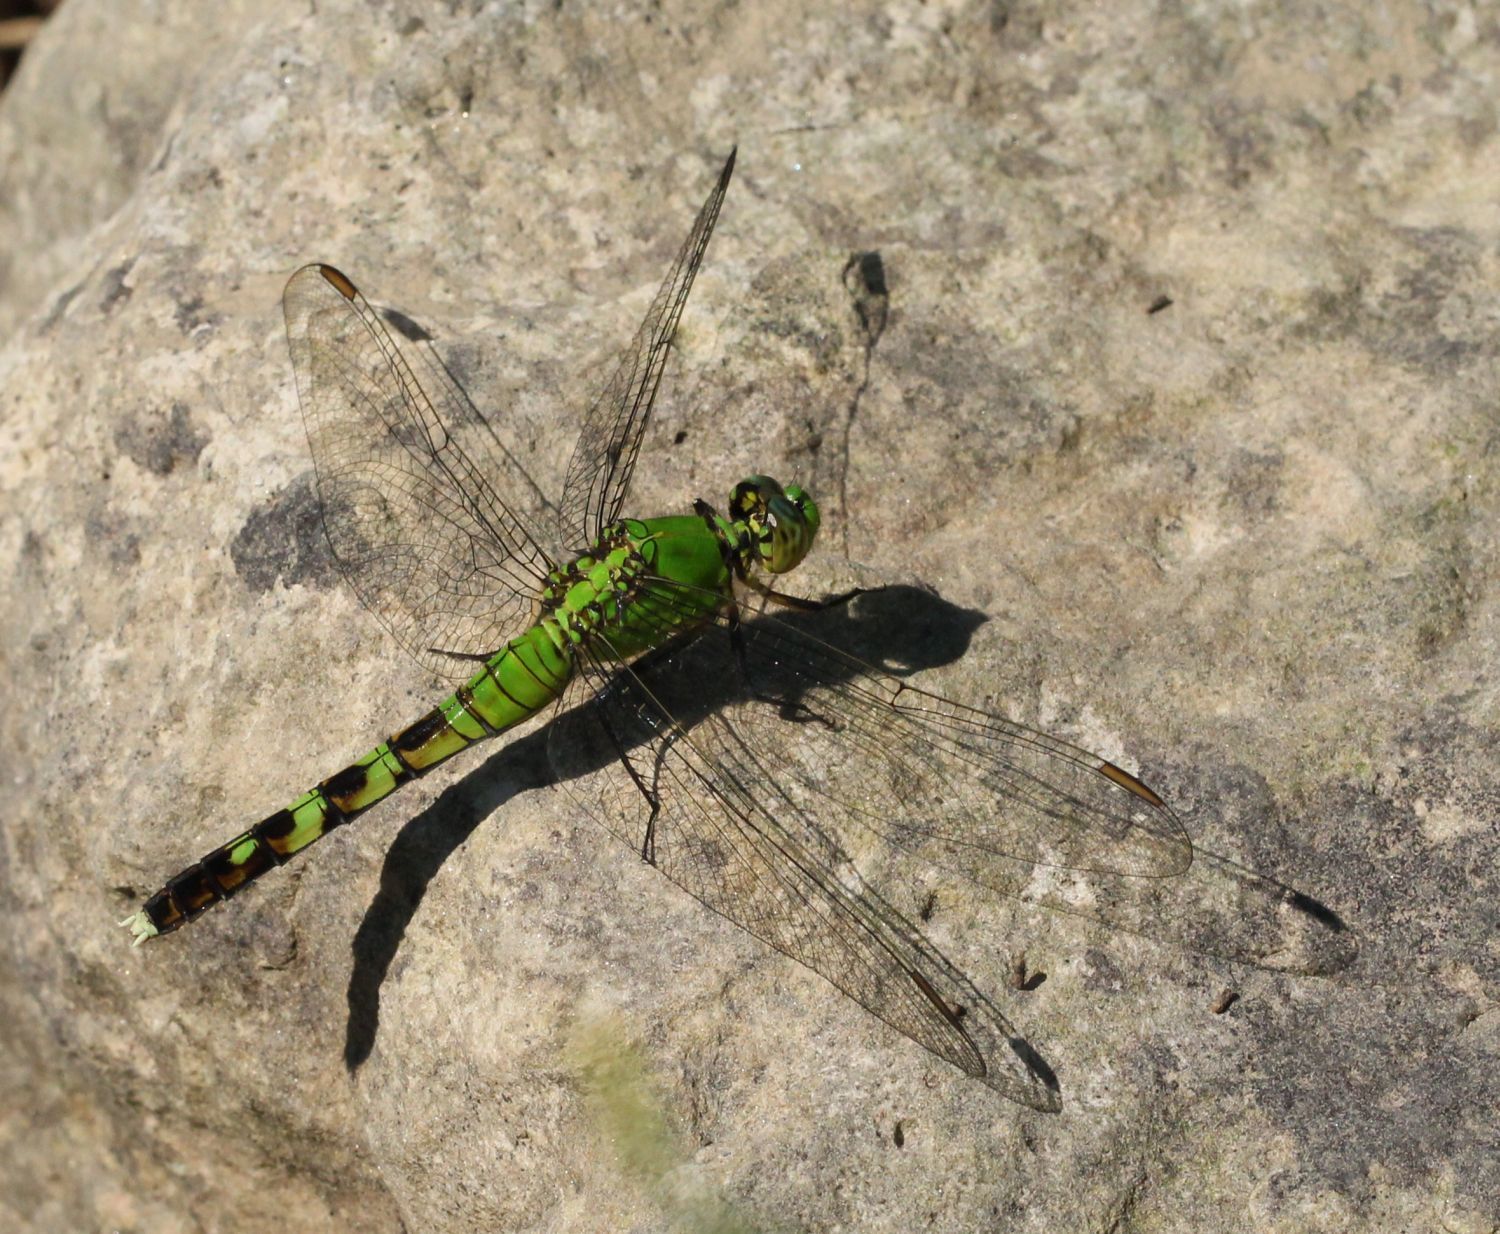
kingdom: Animalia
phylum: Arthropoda
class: Insecta
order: Odonata
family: Libellulidae
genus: Erythemis
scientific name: Erythemis simplicicollis
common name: Eastern pondhawk
